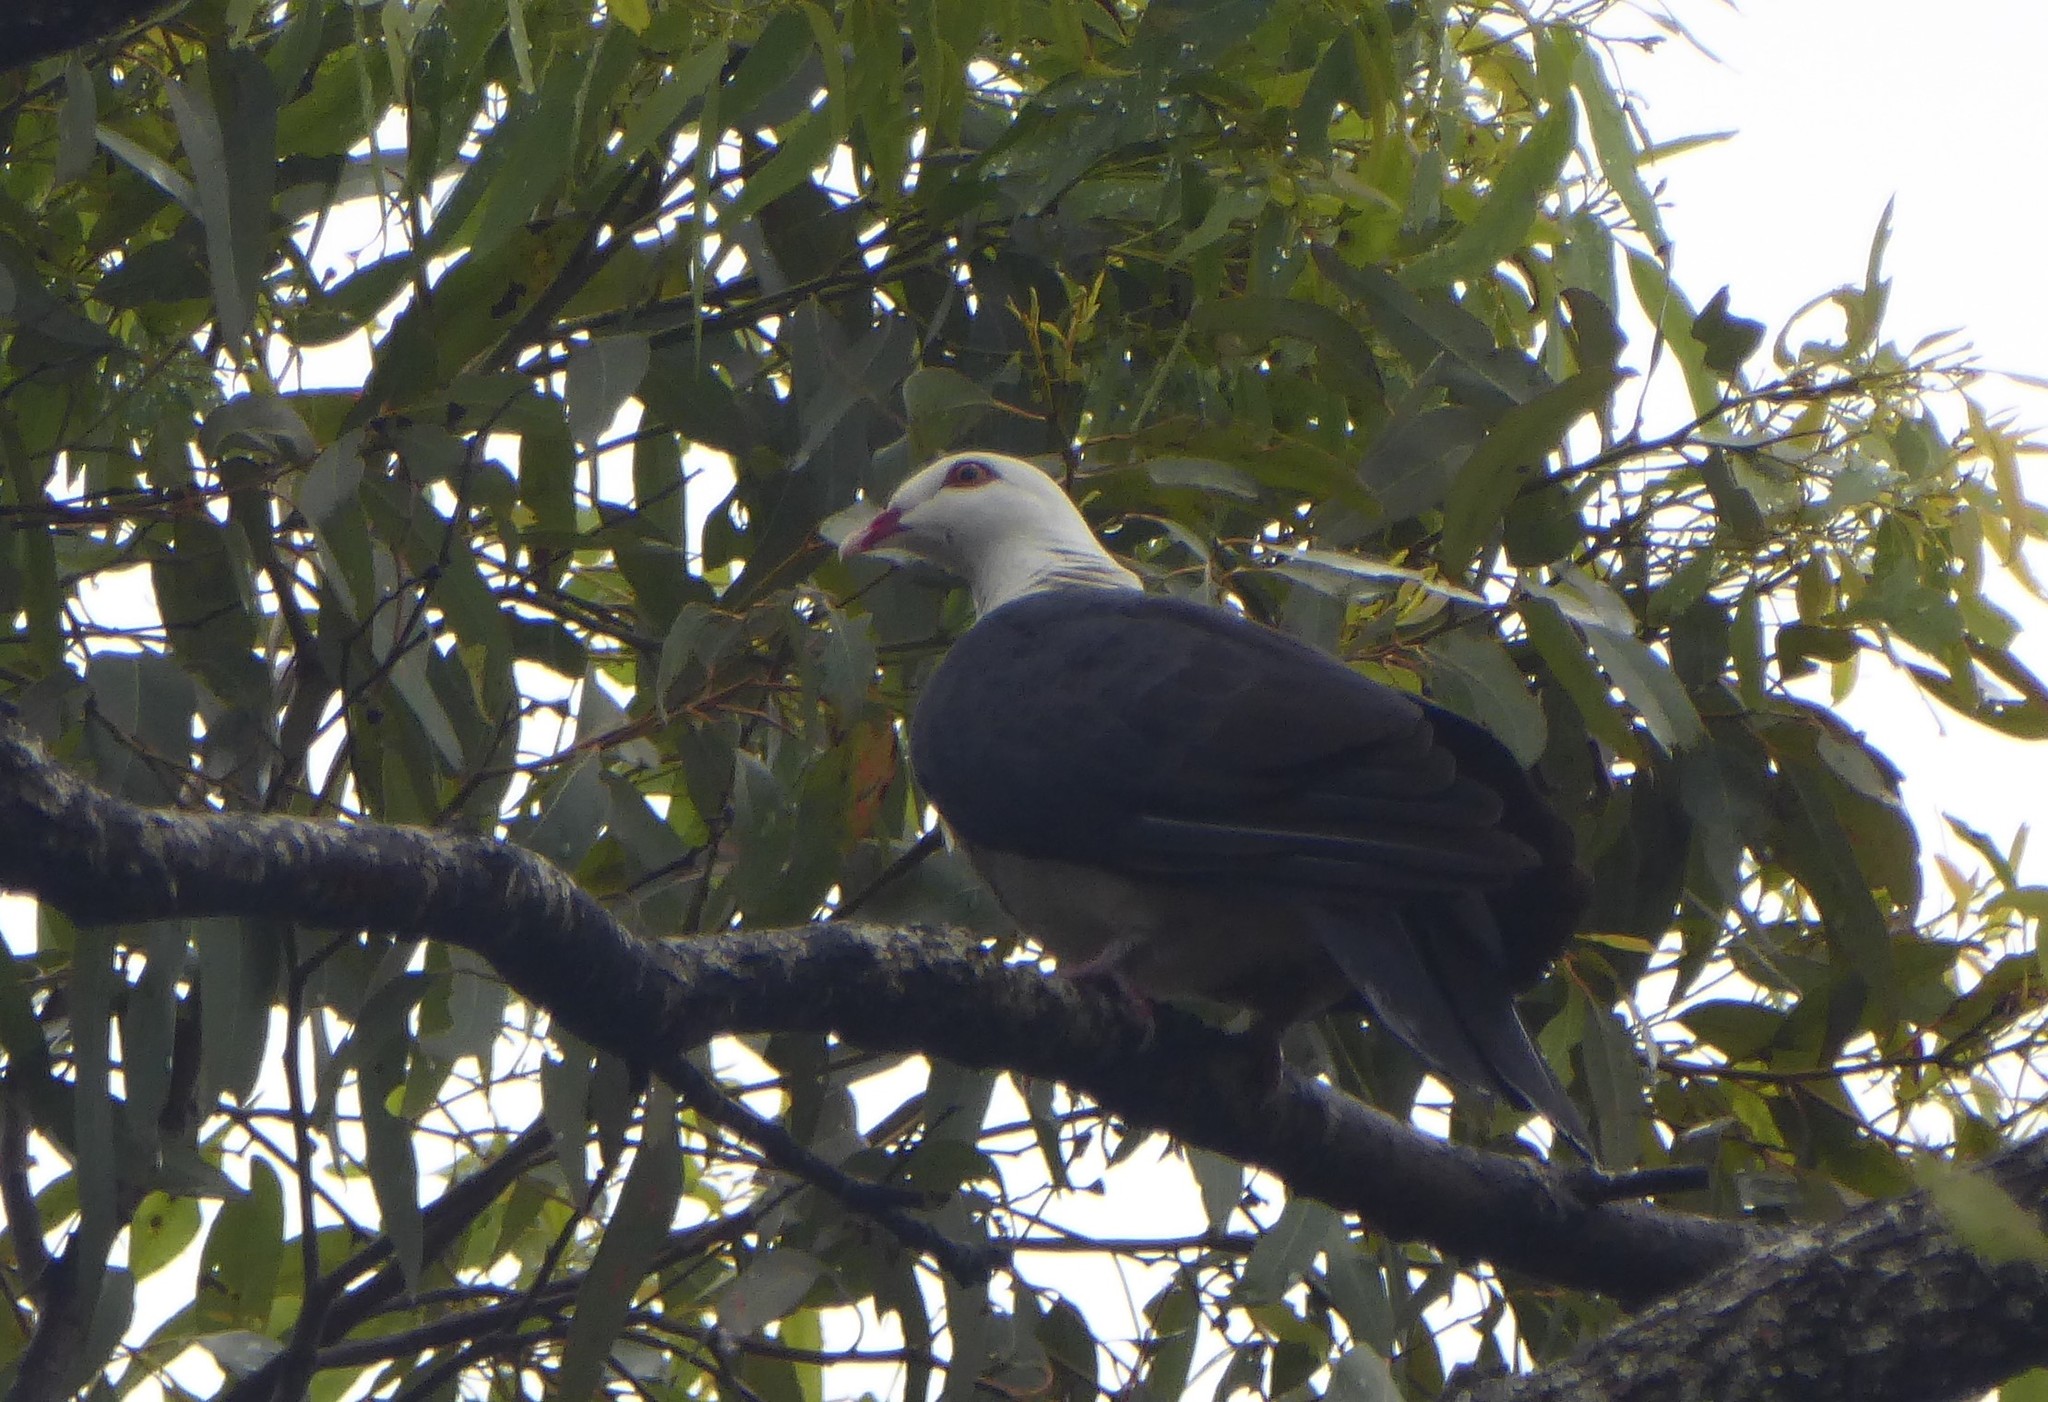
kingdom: Animalia
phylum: Chordata
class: Aves
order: Columbiformes
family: Columbidae
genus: Columba
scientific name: Columba leucomela
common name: White-headed pigeon
